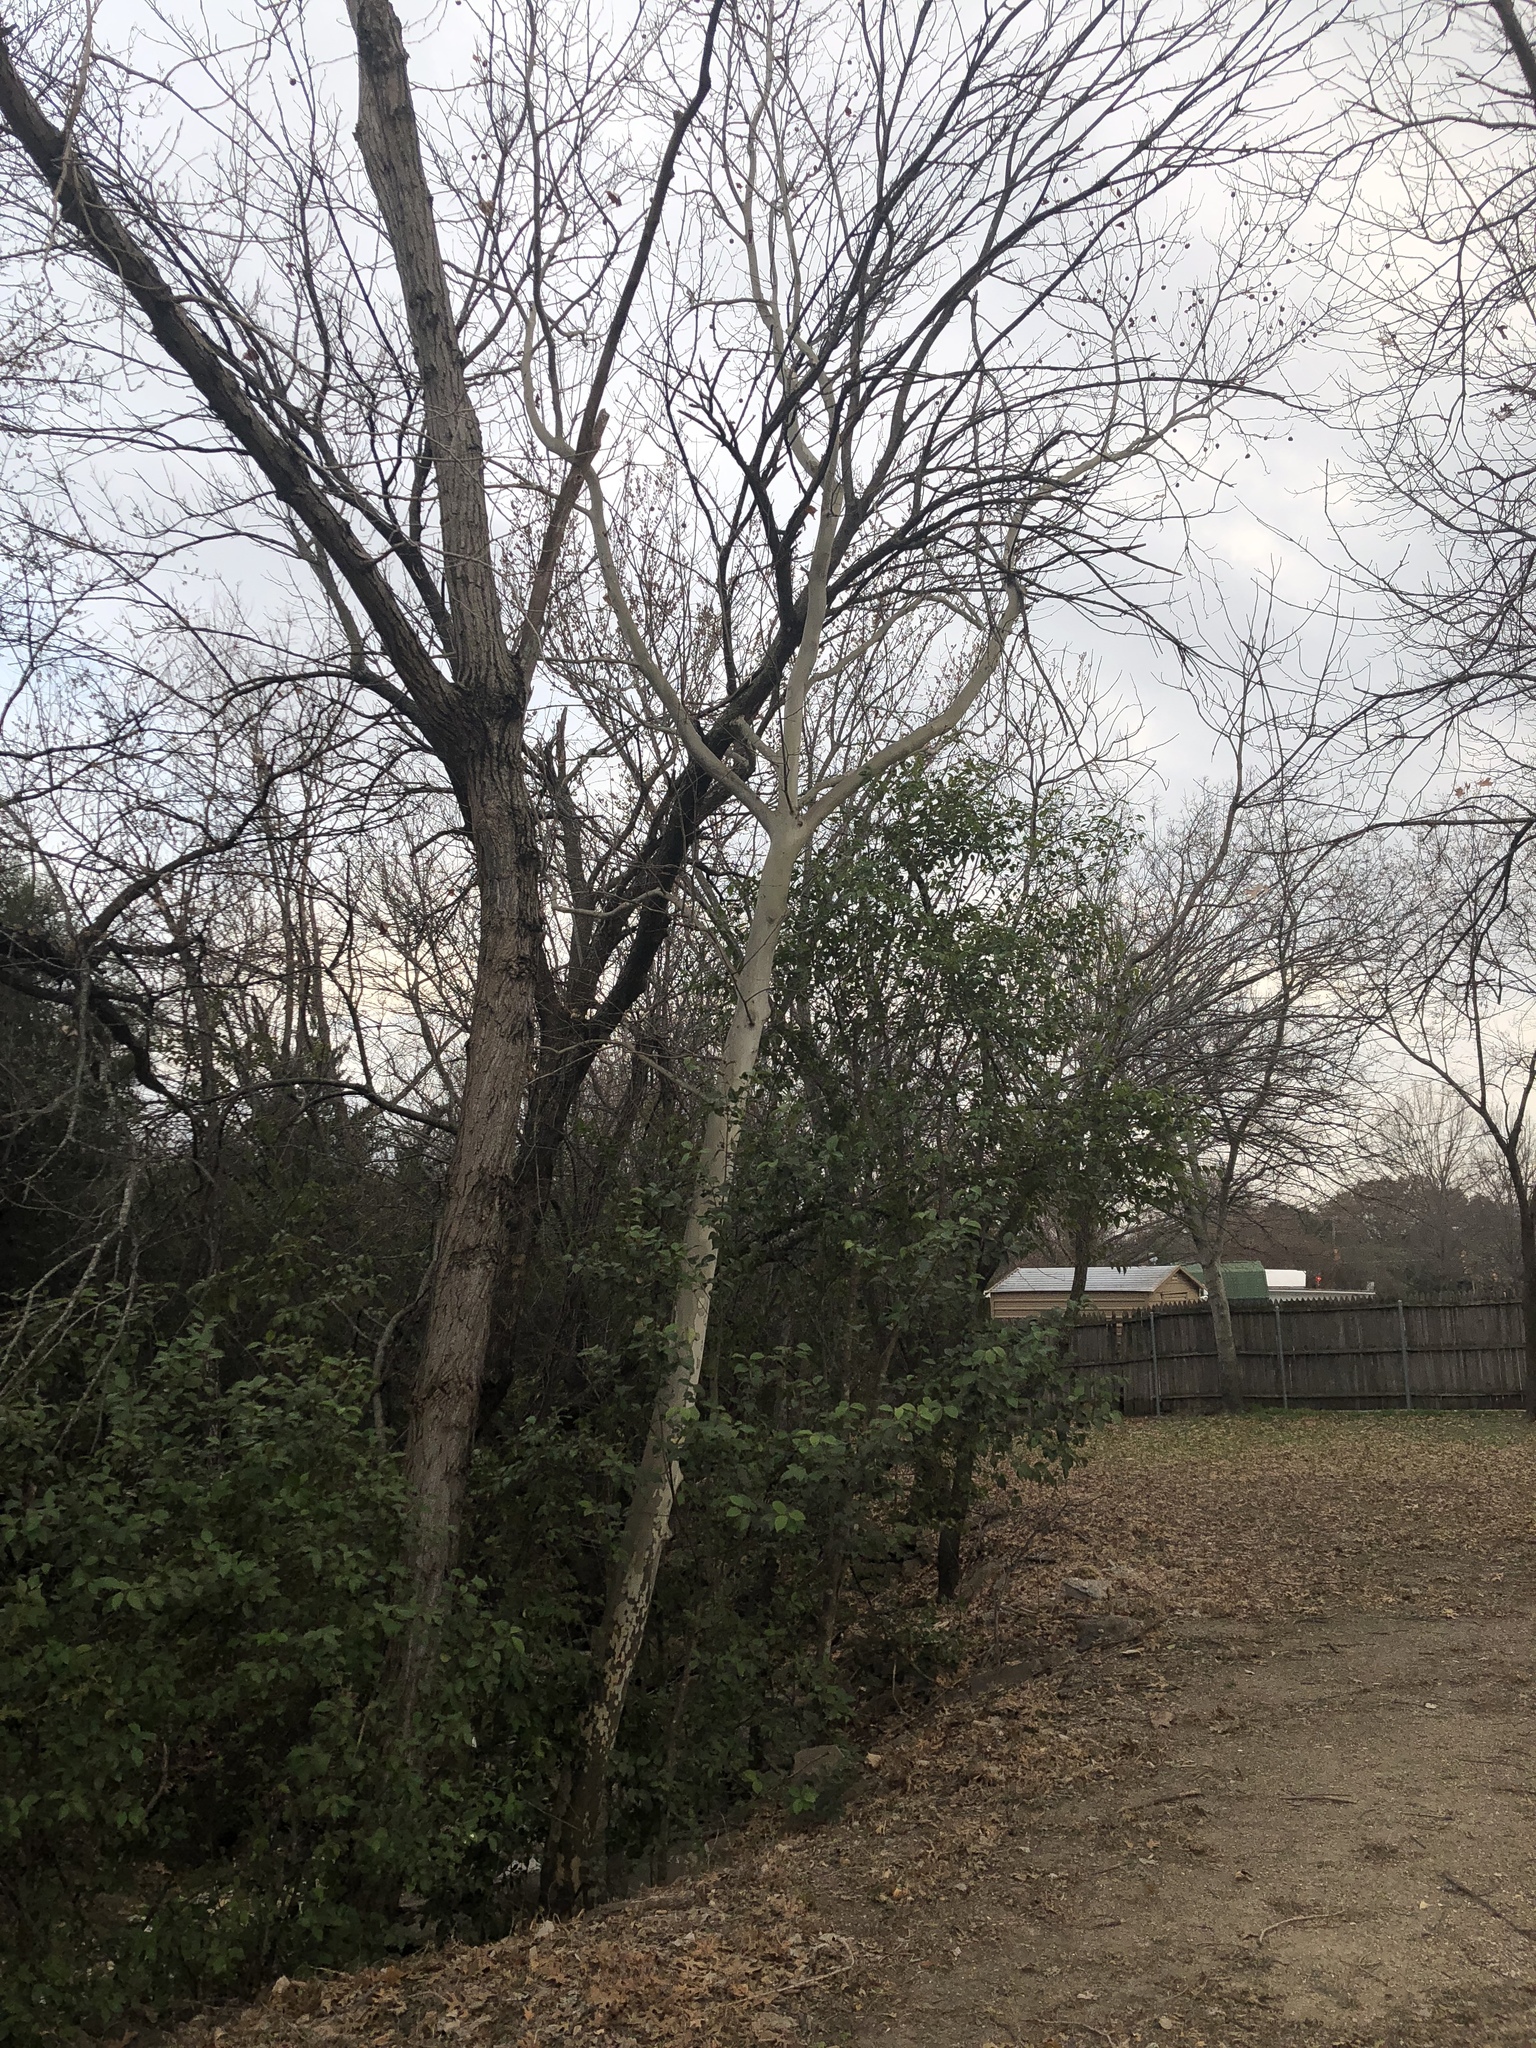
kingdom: Plantae
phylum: Tracheophyta
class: Magnoliopsida
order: Proteales
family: Platanaceae
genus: Platanus
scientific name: Platanus occidentalis
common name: American sycamore
